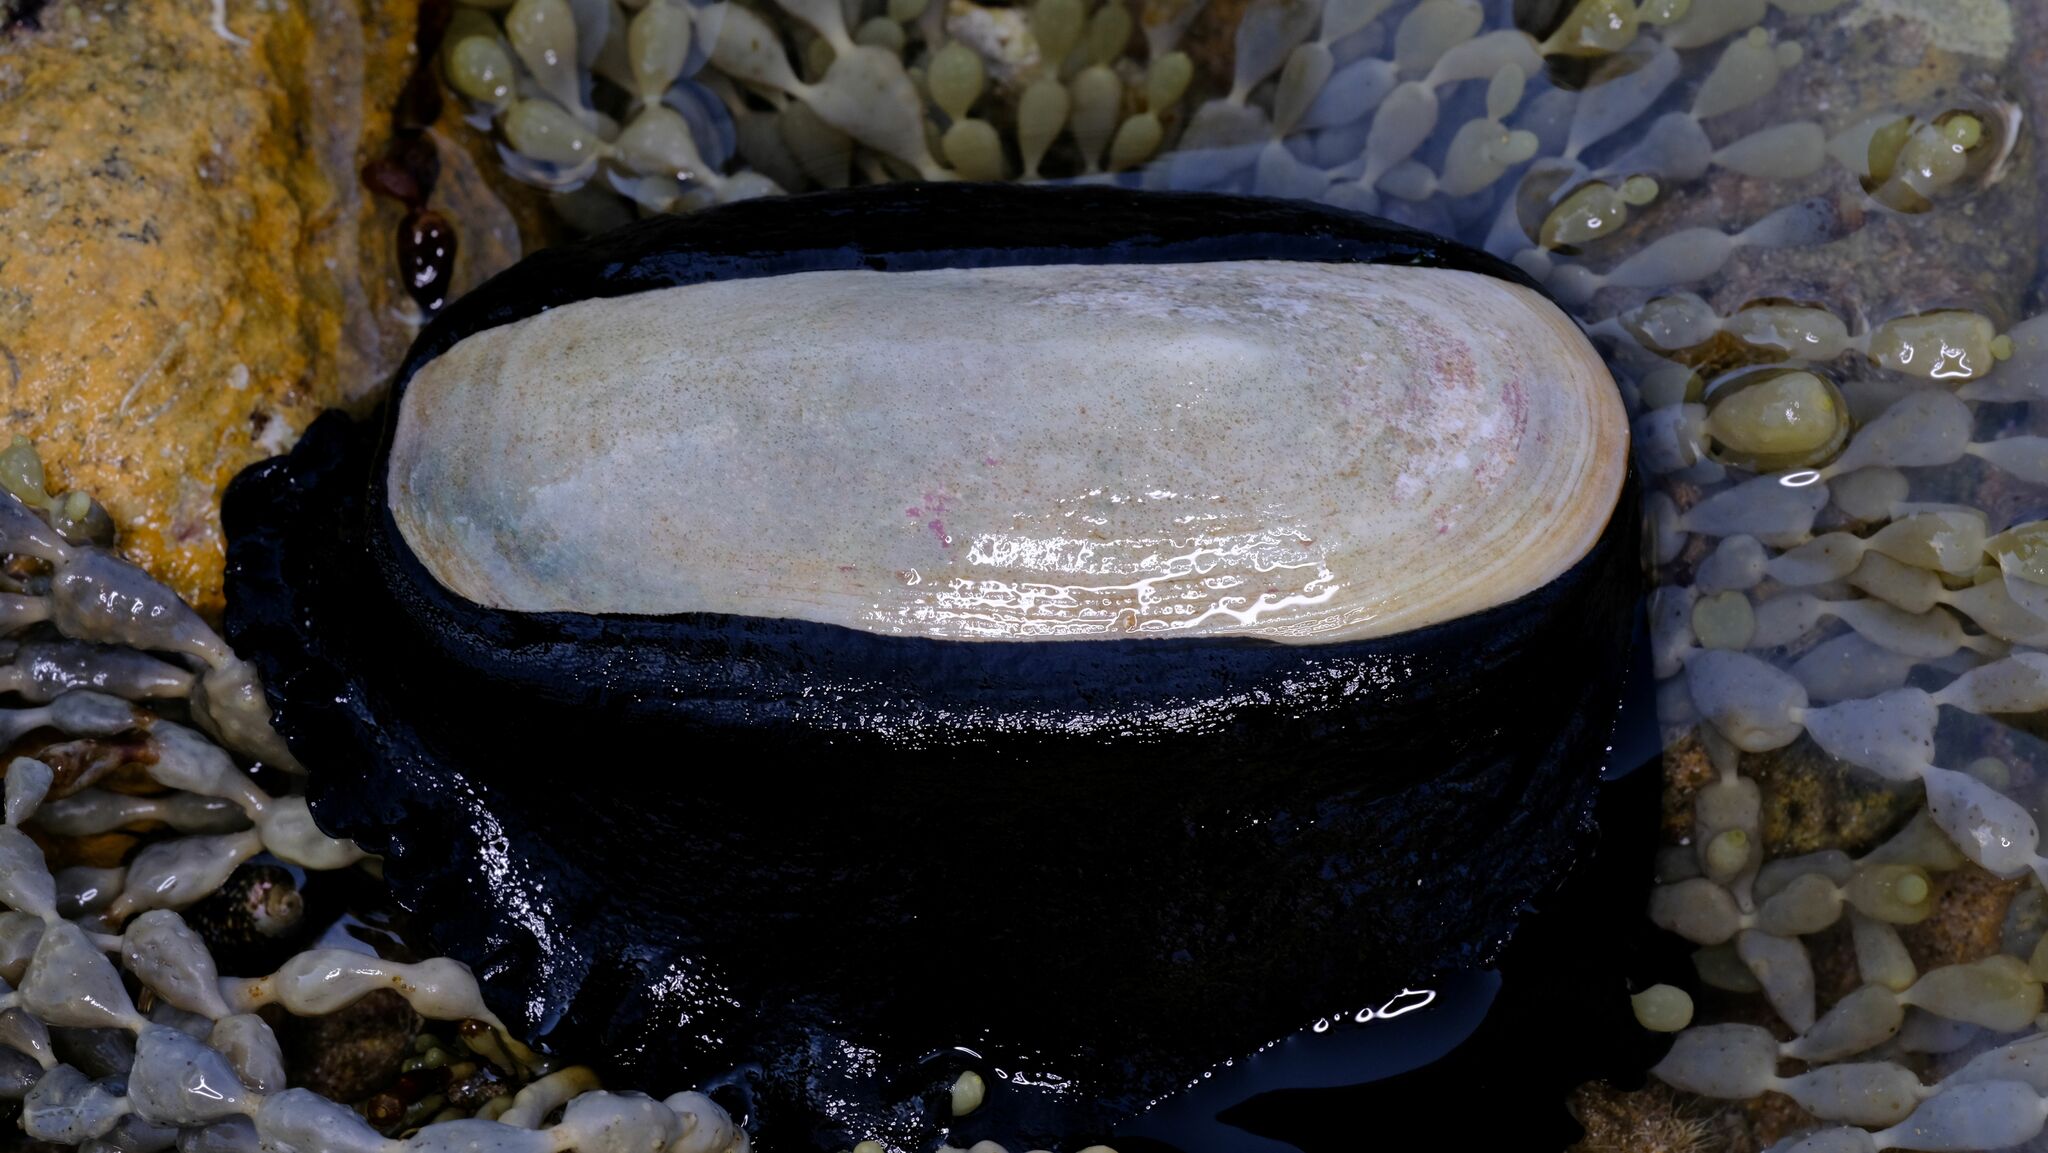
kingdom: Animalia
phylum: Mollusca
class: Gastropoda
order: Lepetellida
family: Fissurellidae
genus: Scutus
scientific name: Scutus antipodes
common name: Duckbill shell
